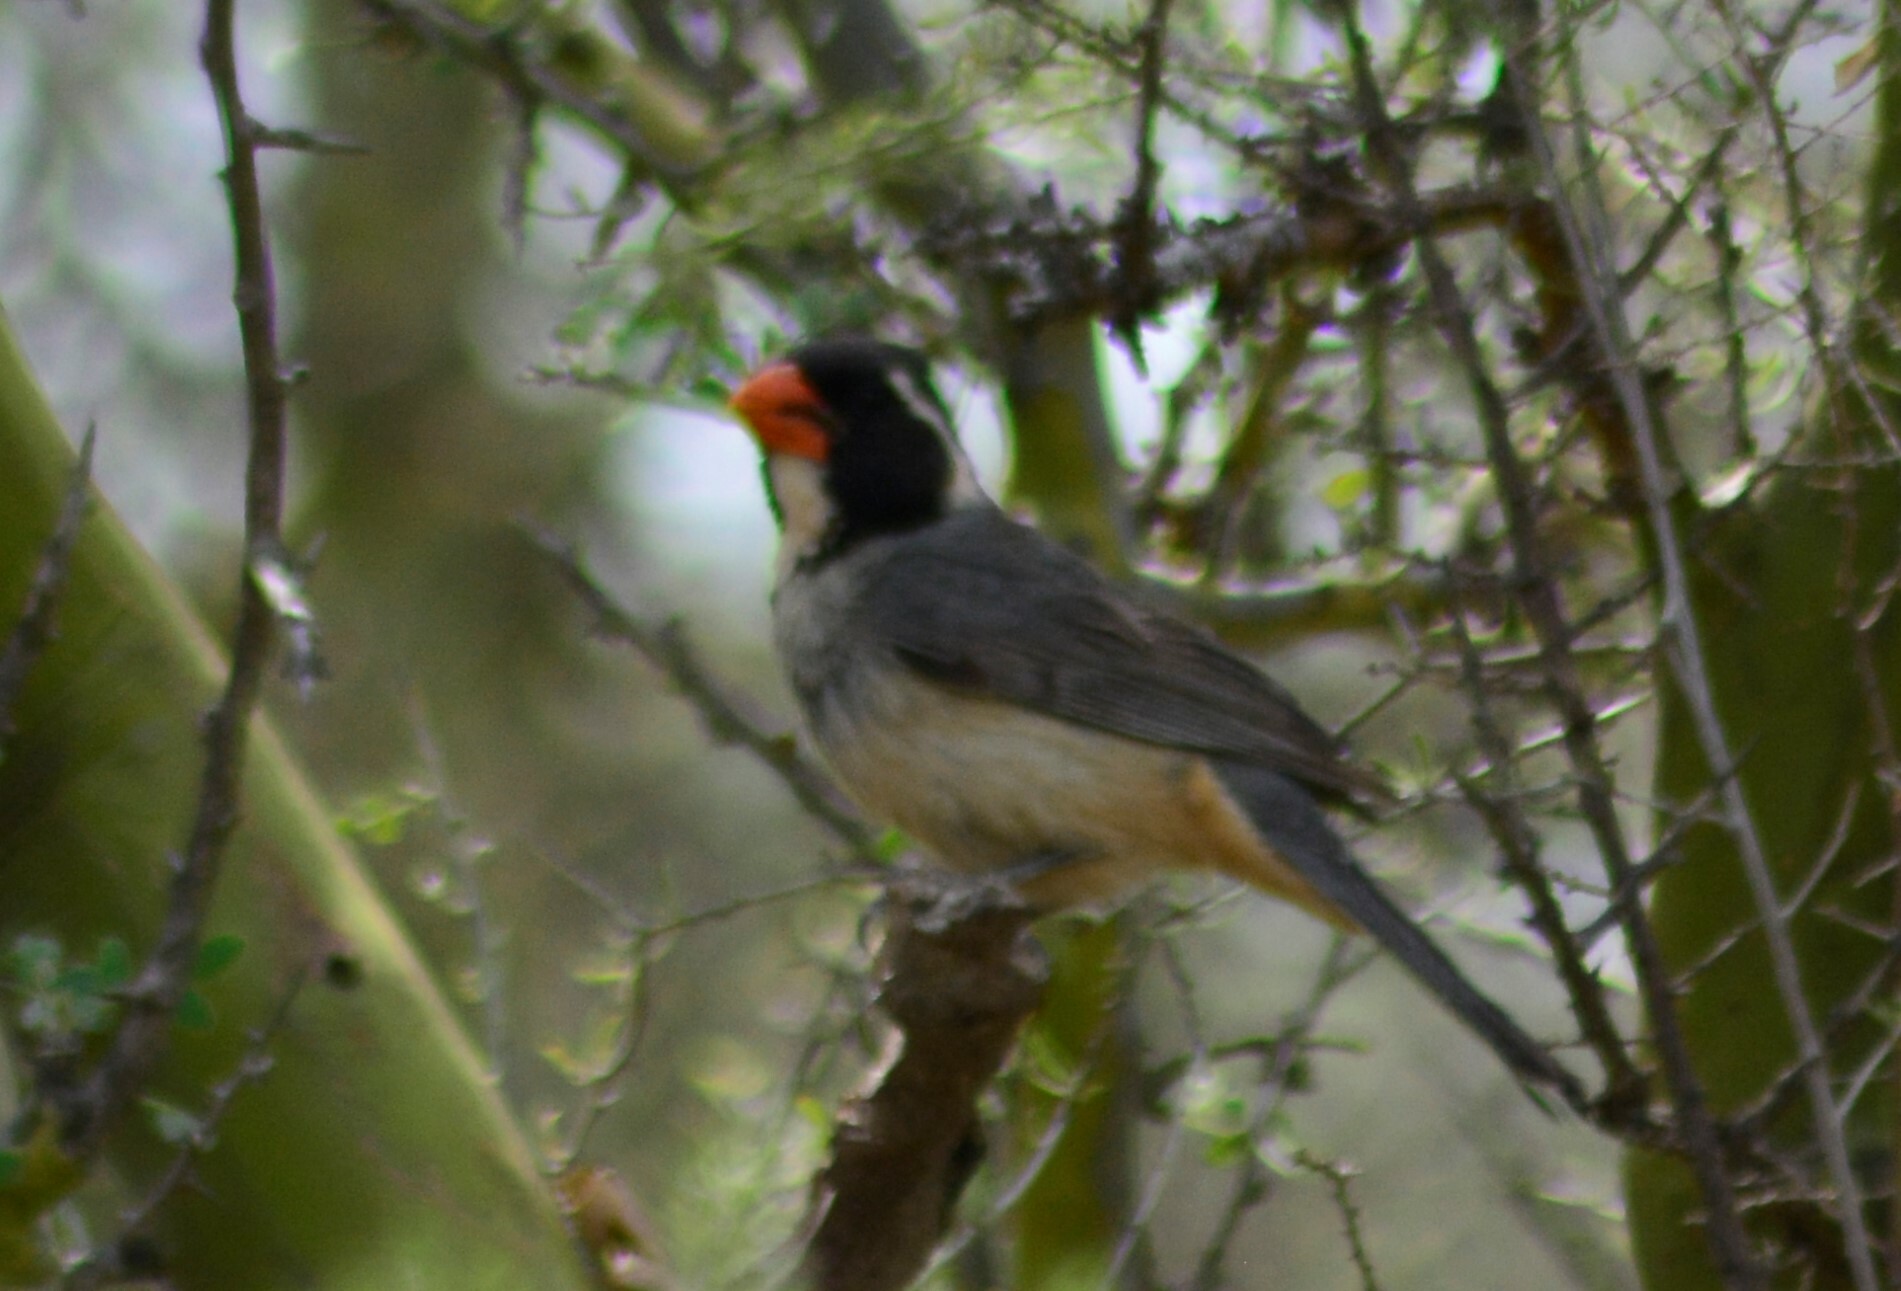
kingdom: Animalia
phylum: Chordata
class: Aves
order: Passeriformes
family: Thraupidae
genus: Saltator
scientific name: Saltator aurantiirostris
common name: Golden-billed saltator
